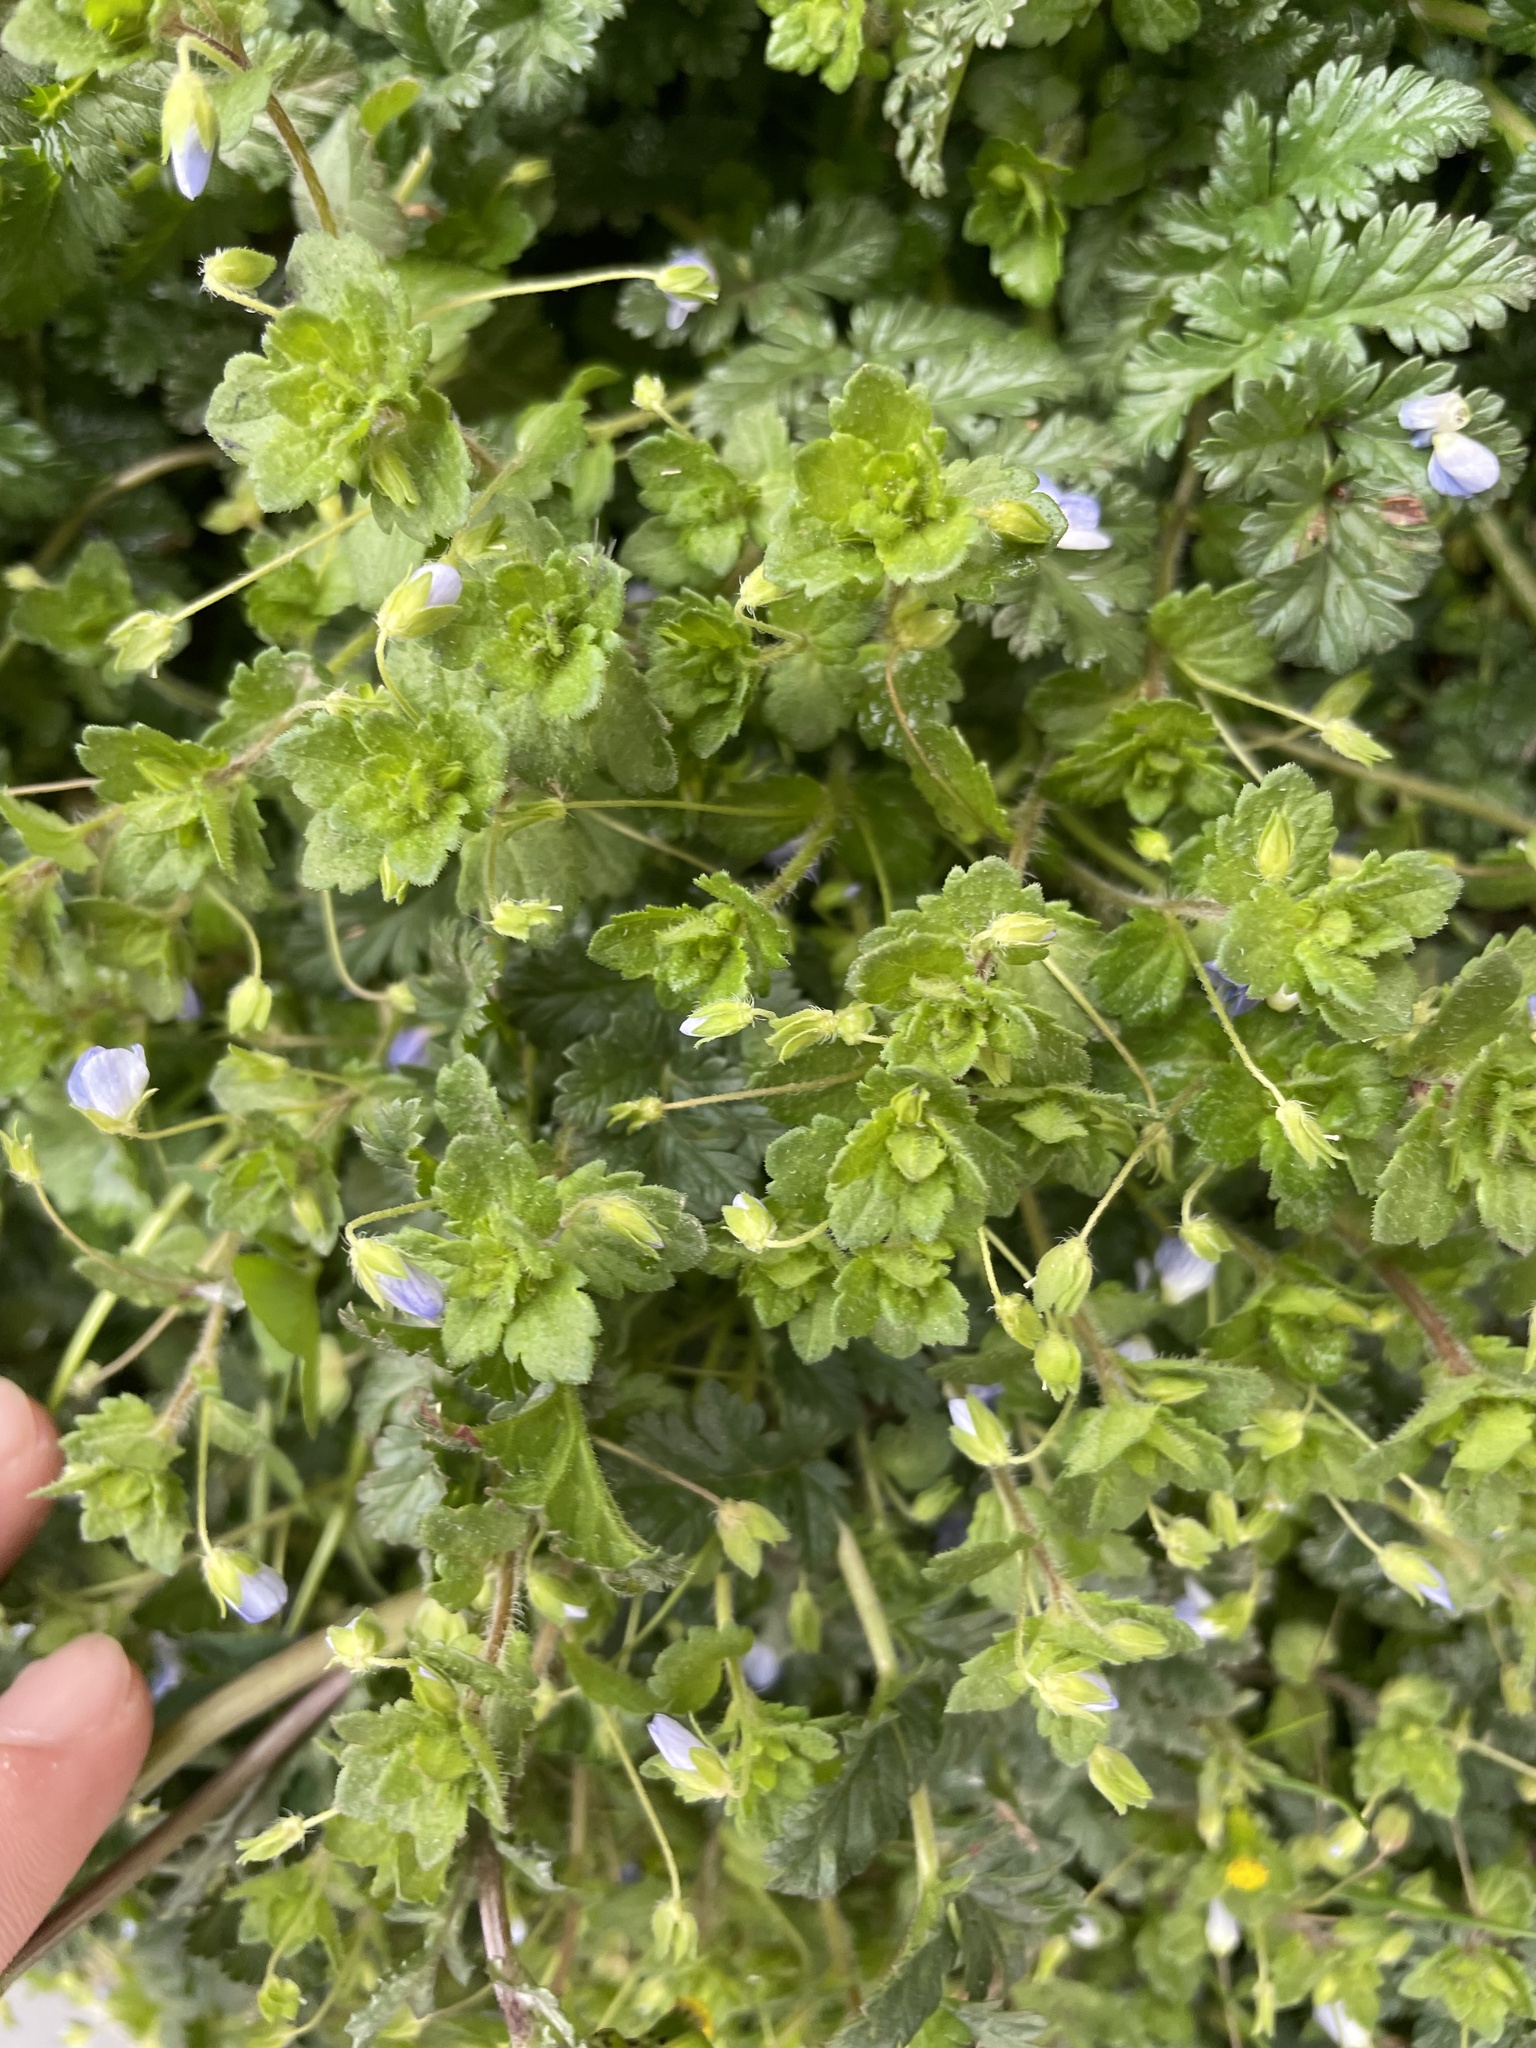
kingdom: Plantae
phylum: Tracheophyta
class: Magnoliopsida
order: Lamiales
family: Plantaginaceae
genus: Veronica
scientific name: Veronica persica
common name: Common field-speedwell
